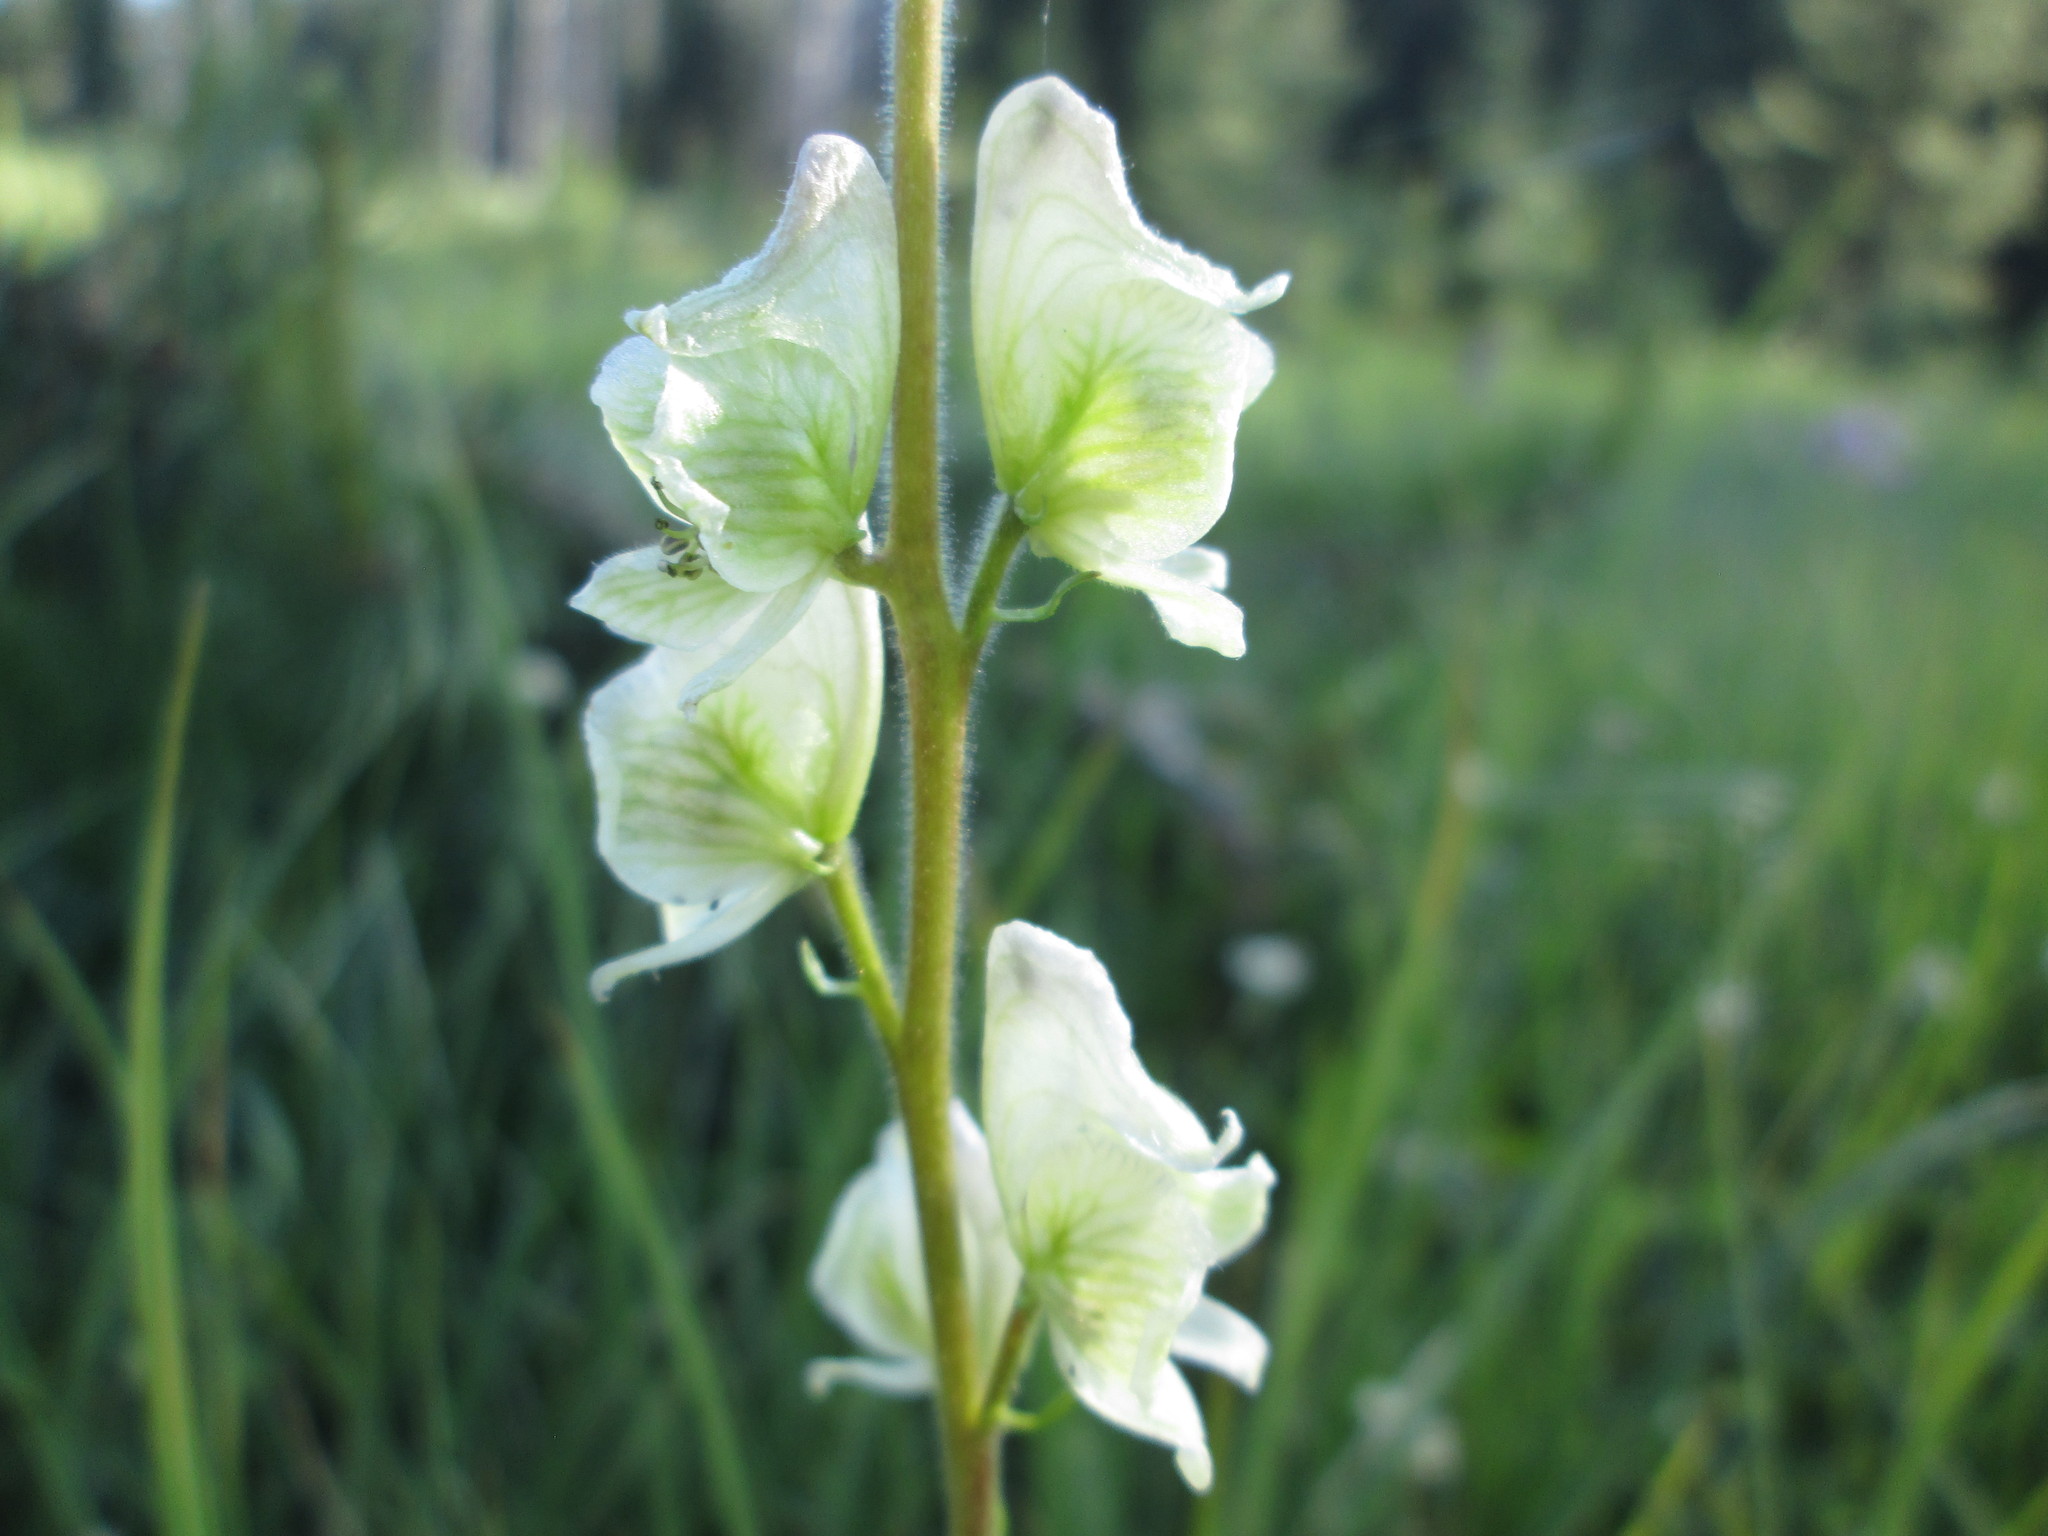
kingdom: Plantae
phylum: Tracheophyta
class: Magnoliopsida
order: Ranunculales
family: Ranunculaceae
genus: Aconitum
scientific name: Aconitum columbianum
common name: Columbia aconite
